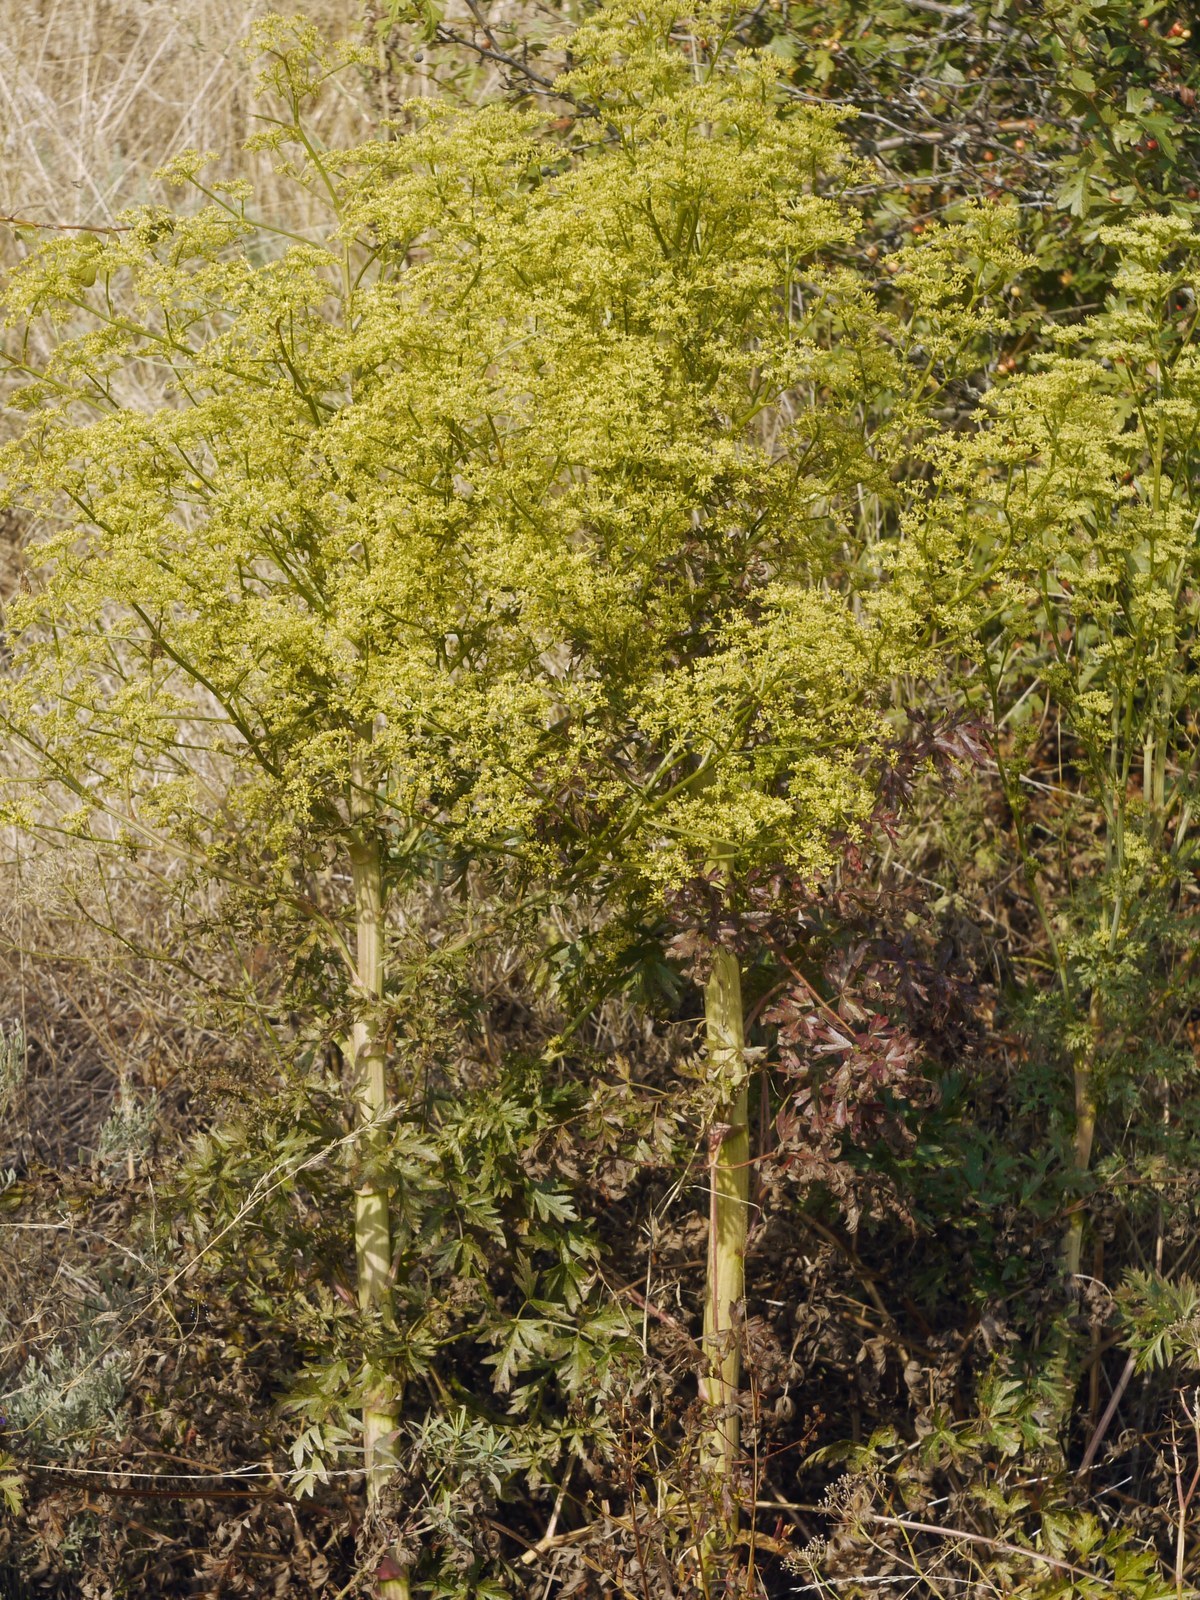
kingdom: Plantae
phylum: Tracheophyta
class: Magnoliopsida
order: Apiales
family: Apiaceae
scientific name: Apiaceae
